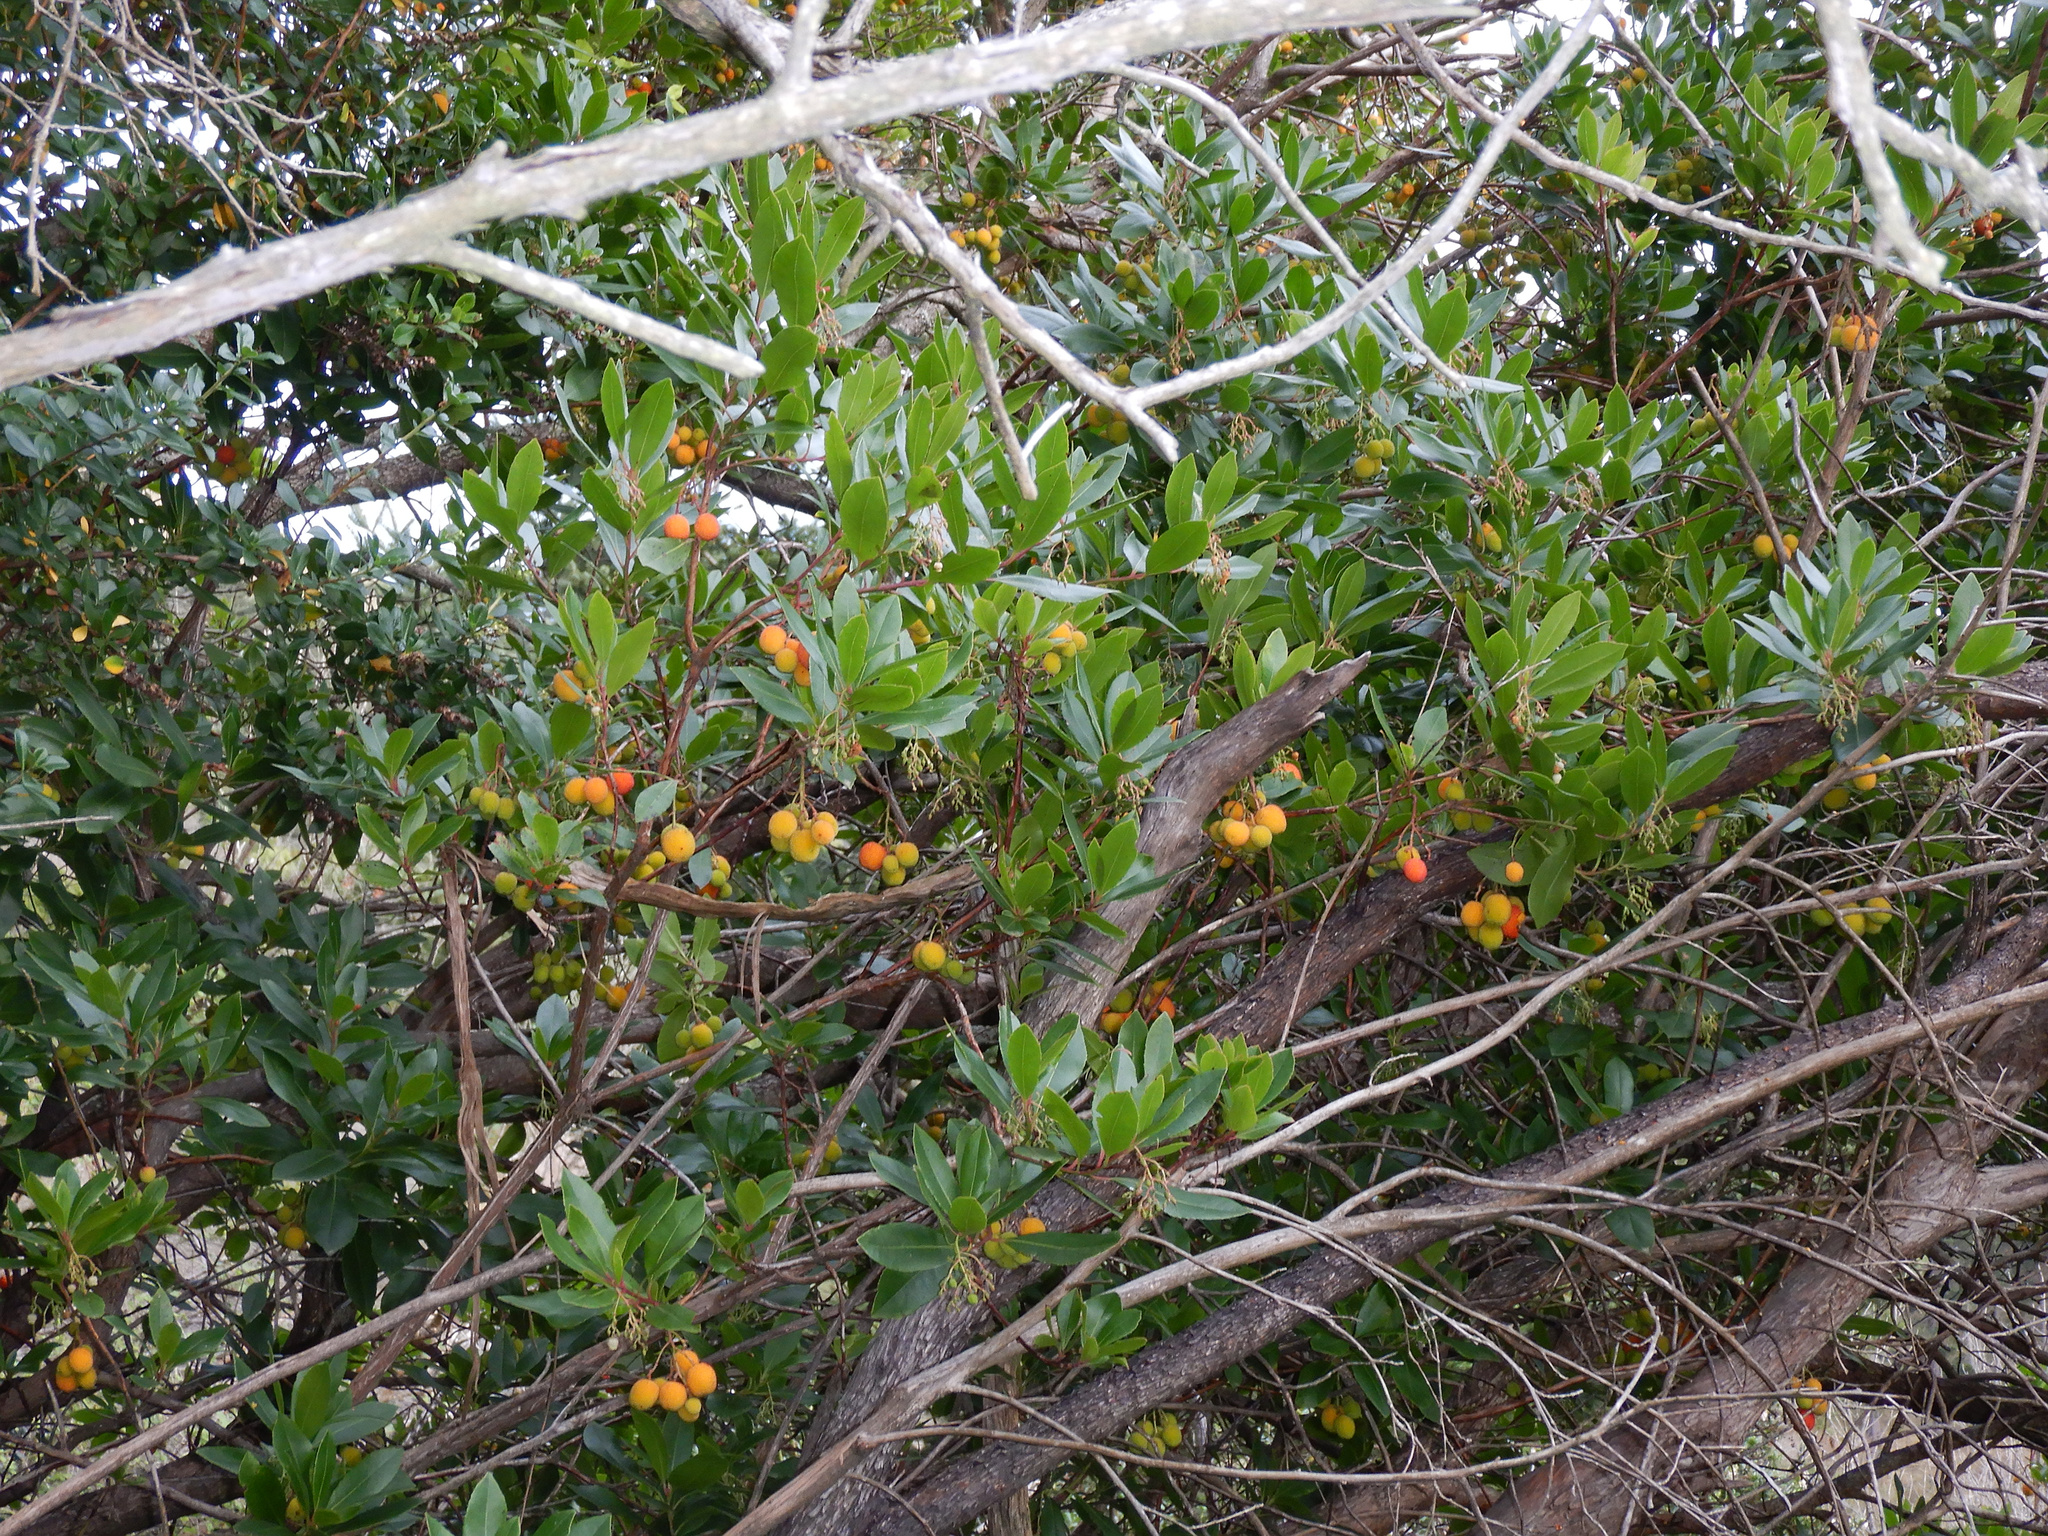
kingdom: Plantae
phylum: Tracheophyta
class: Magnoliopsida
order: Ericales
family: Ericaceae
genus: Arbutus
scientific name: Arbutus unedo
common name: Strawberry-tree
